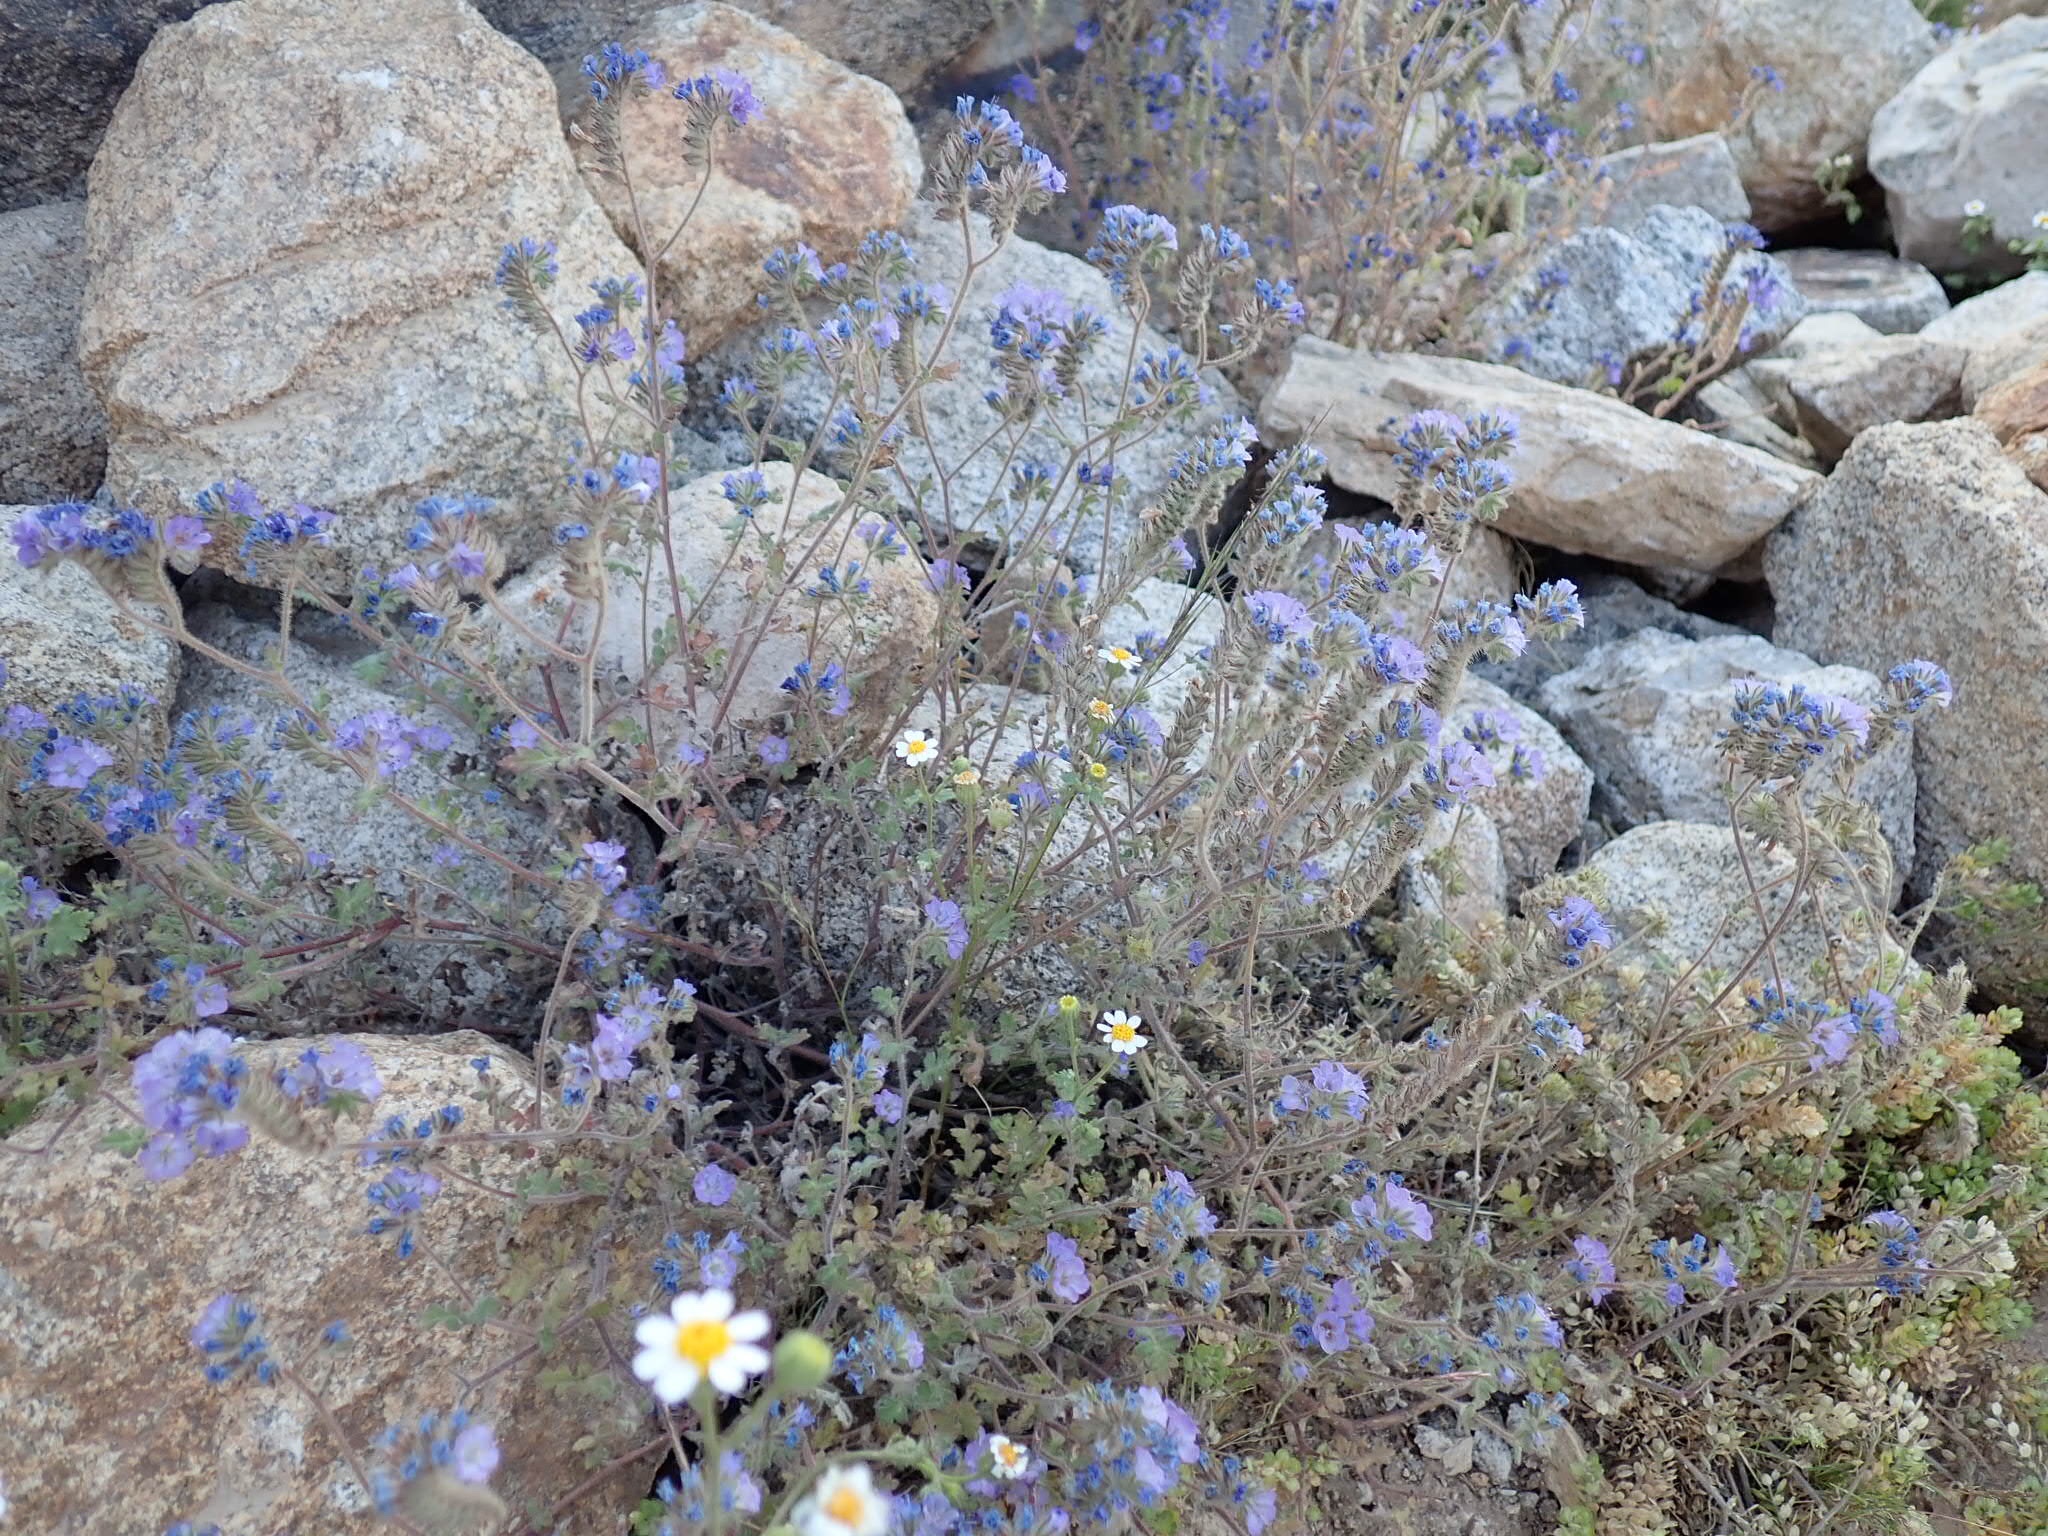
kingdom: Plantae
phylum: Tracheophyta
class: Magnoliopsida
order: Boraginales
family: Hydrophyllaceae
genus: Phacelia
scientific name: Phacelia distans
